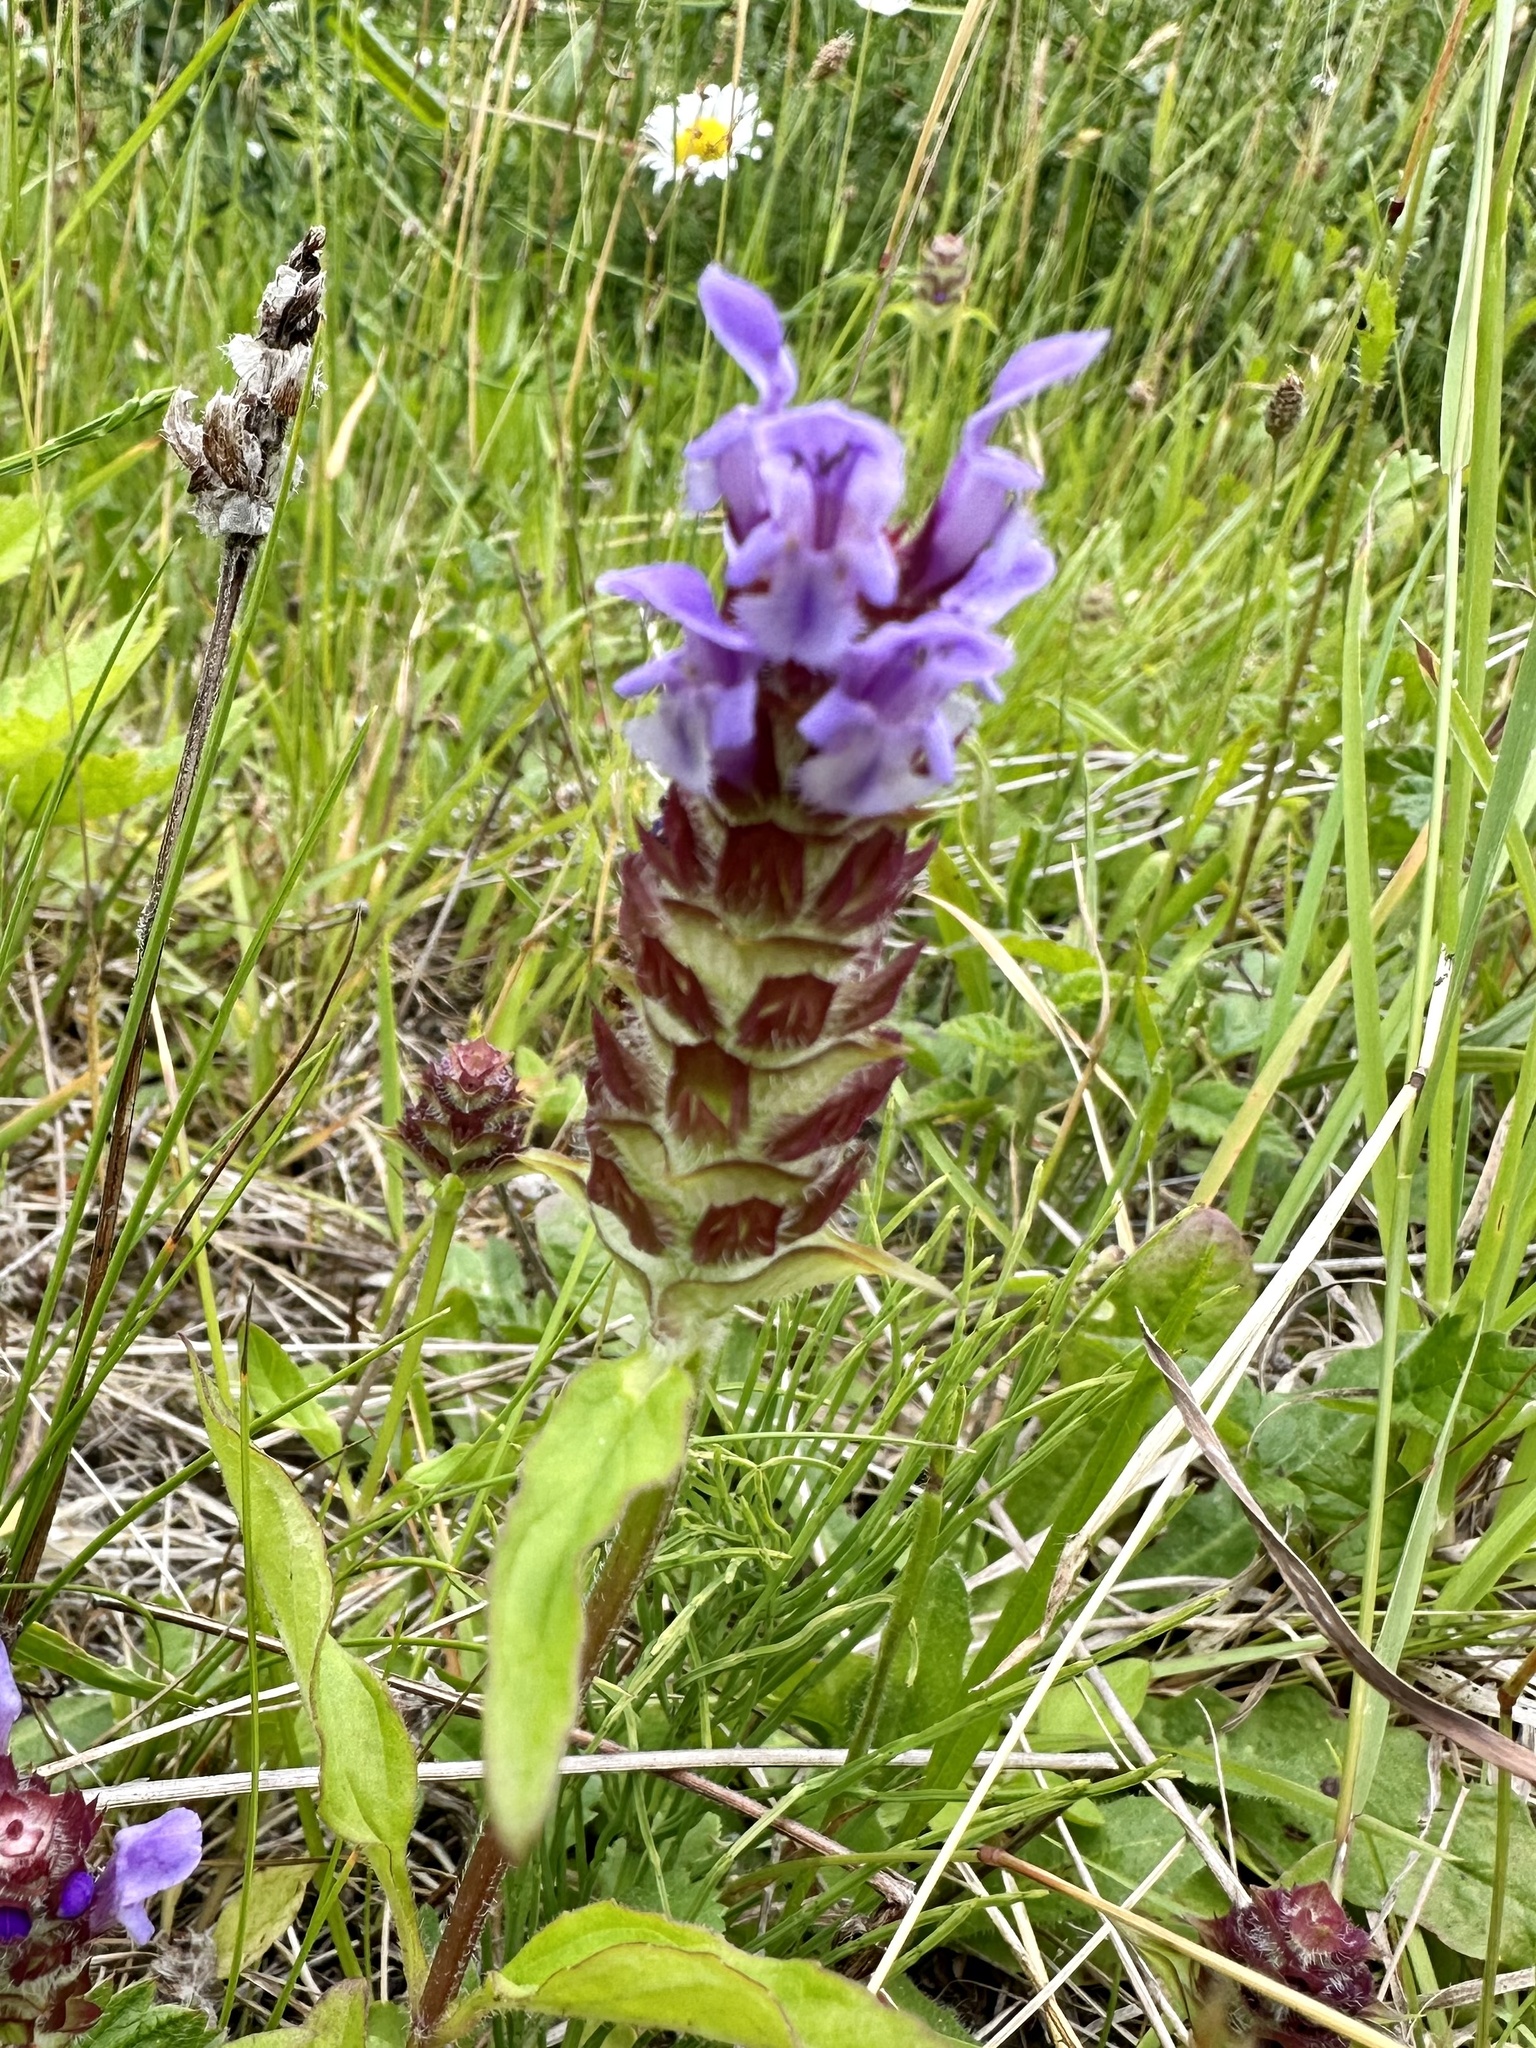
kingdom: Plantae
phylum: Tracheophyta
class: Magnoliopsida
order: Lamiales
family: Lamiaceae
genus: Prunella
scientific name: Prunella vulgaris
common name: Heal-all
